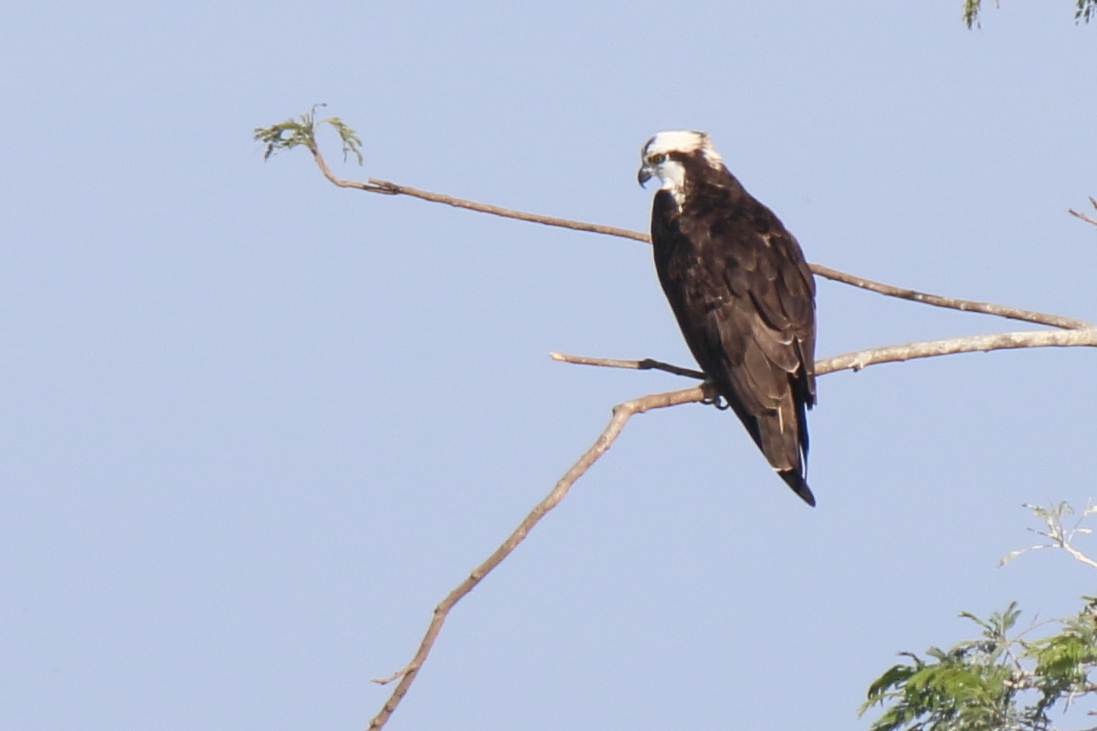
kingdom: Animalia
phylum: Chordata
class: Aves
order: Accipitriformes
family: Pandionidae
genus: Pandion
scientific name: Pandion haliaetus
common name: Osprey
